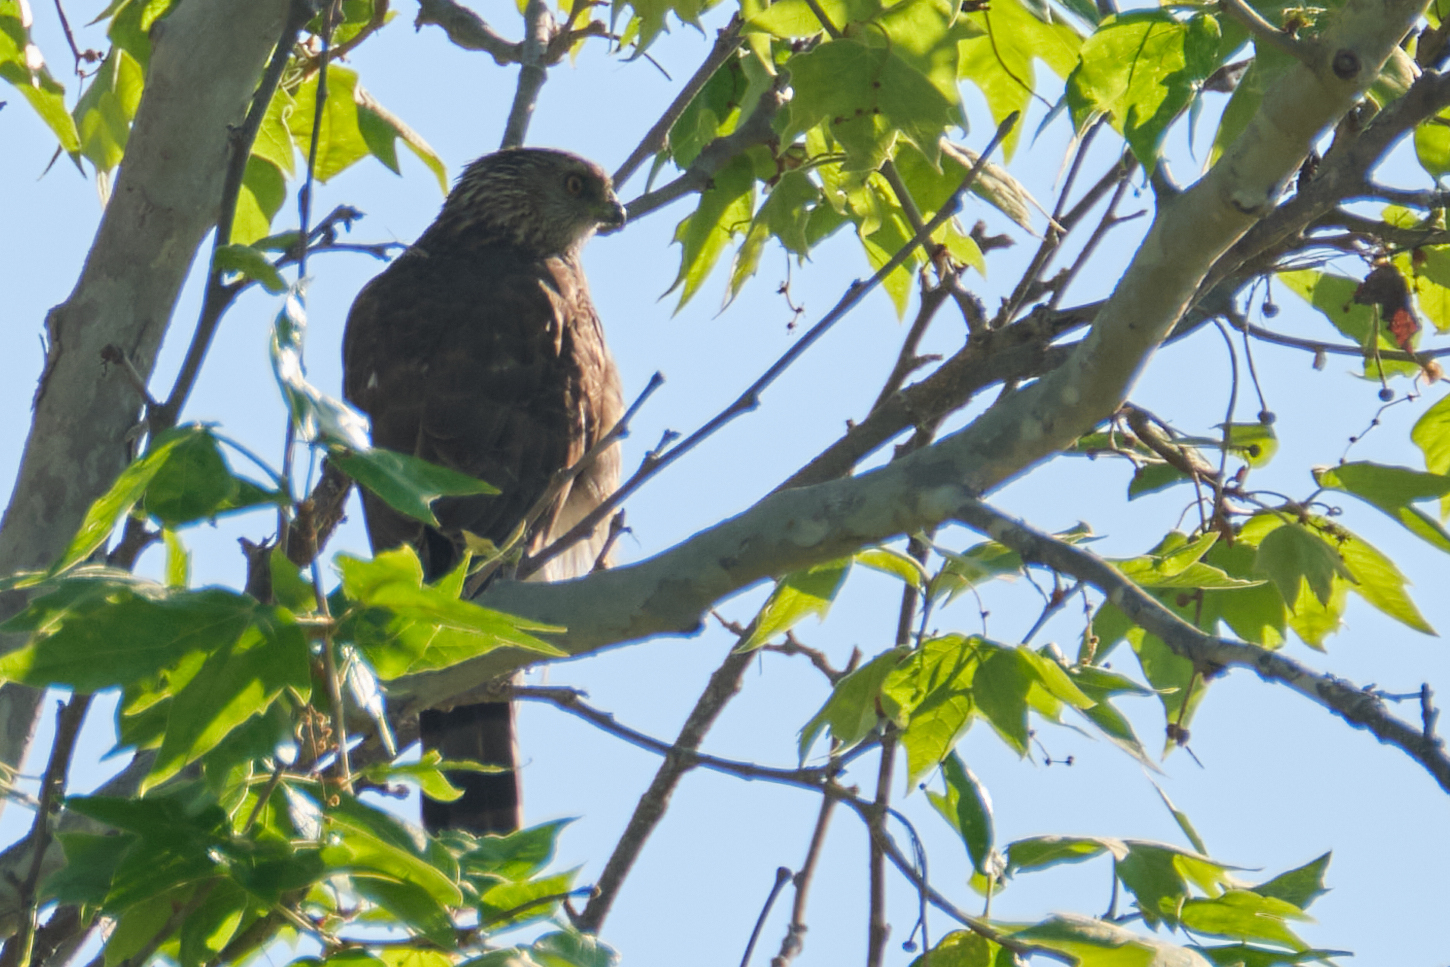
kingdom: Animalia
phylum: Chordata
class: Aves
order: Accipitriformes
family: Accipitridae
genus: Accipiter
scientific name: Accipiter cooperii
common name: Cooper's hawk
